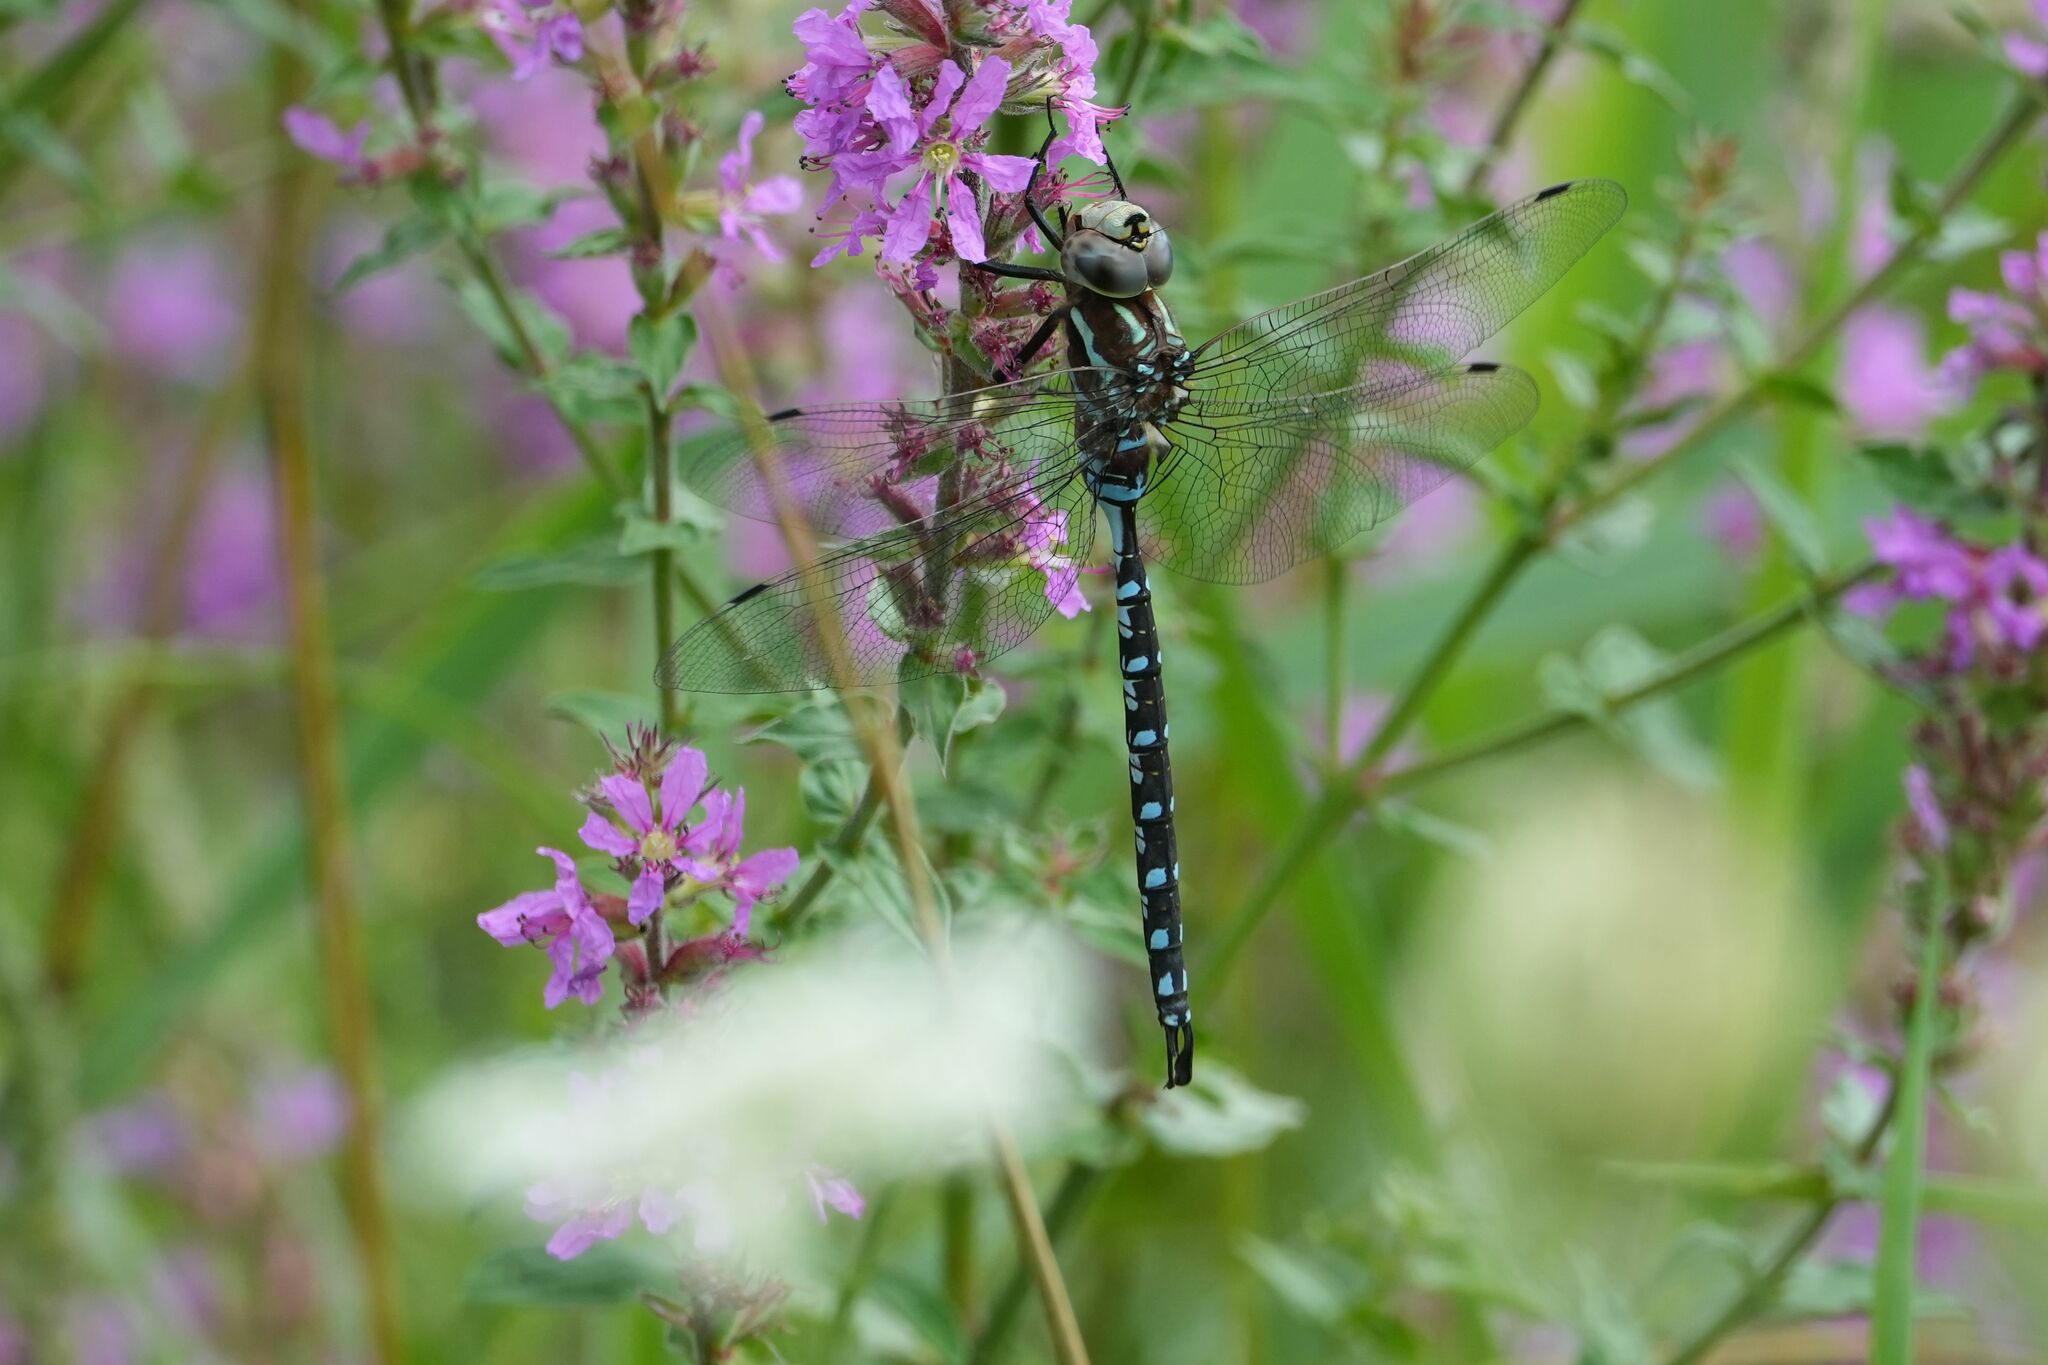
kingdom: Animalia
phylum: Arthropoda
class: Insecta
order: Odonata
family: Aeshnidae
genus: Aeshna
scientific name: Aeshna constricta
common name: Lance-tipped darner
